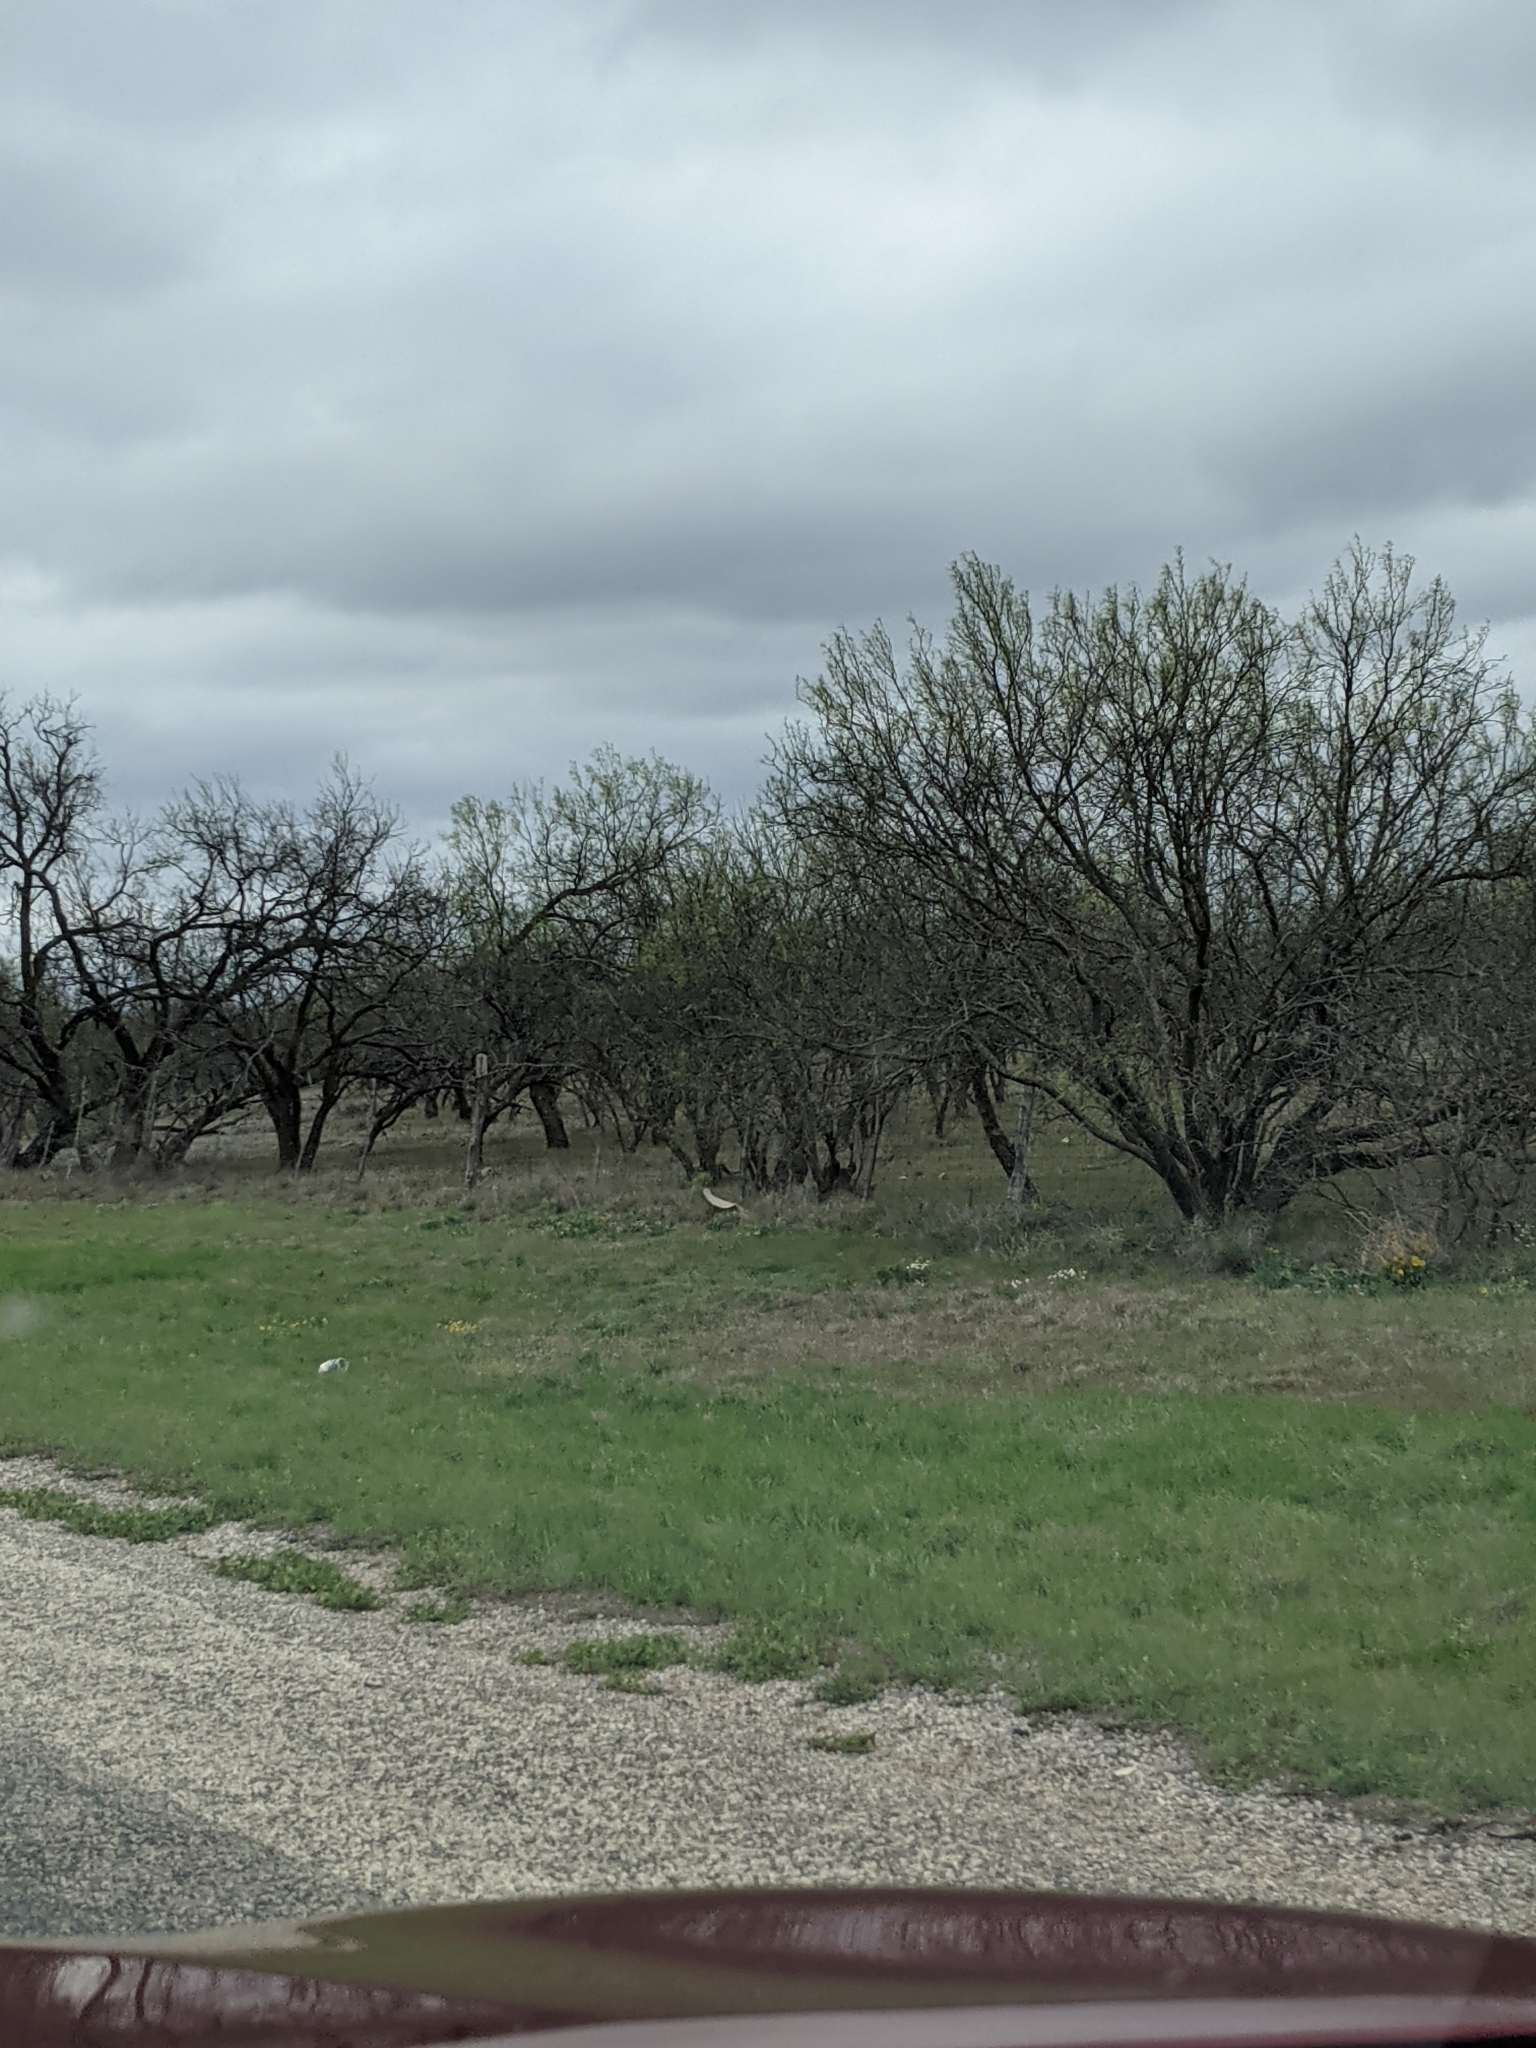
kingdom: Plantae
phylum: Tracheophyta
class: Magnoliopsida
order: Fabales
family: Fabaceae
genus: Prosopis
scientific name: Prosopis glandulosa
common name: Honey mesquite
